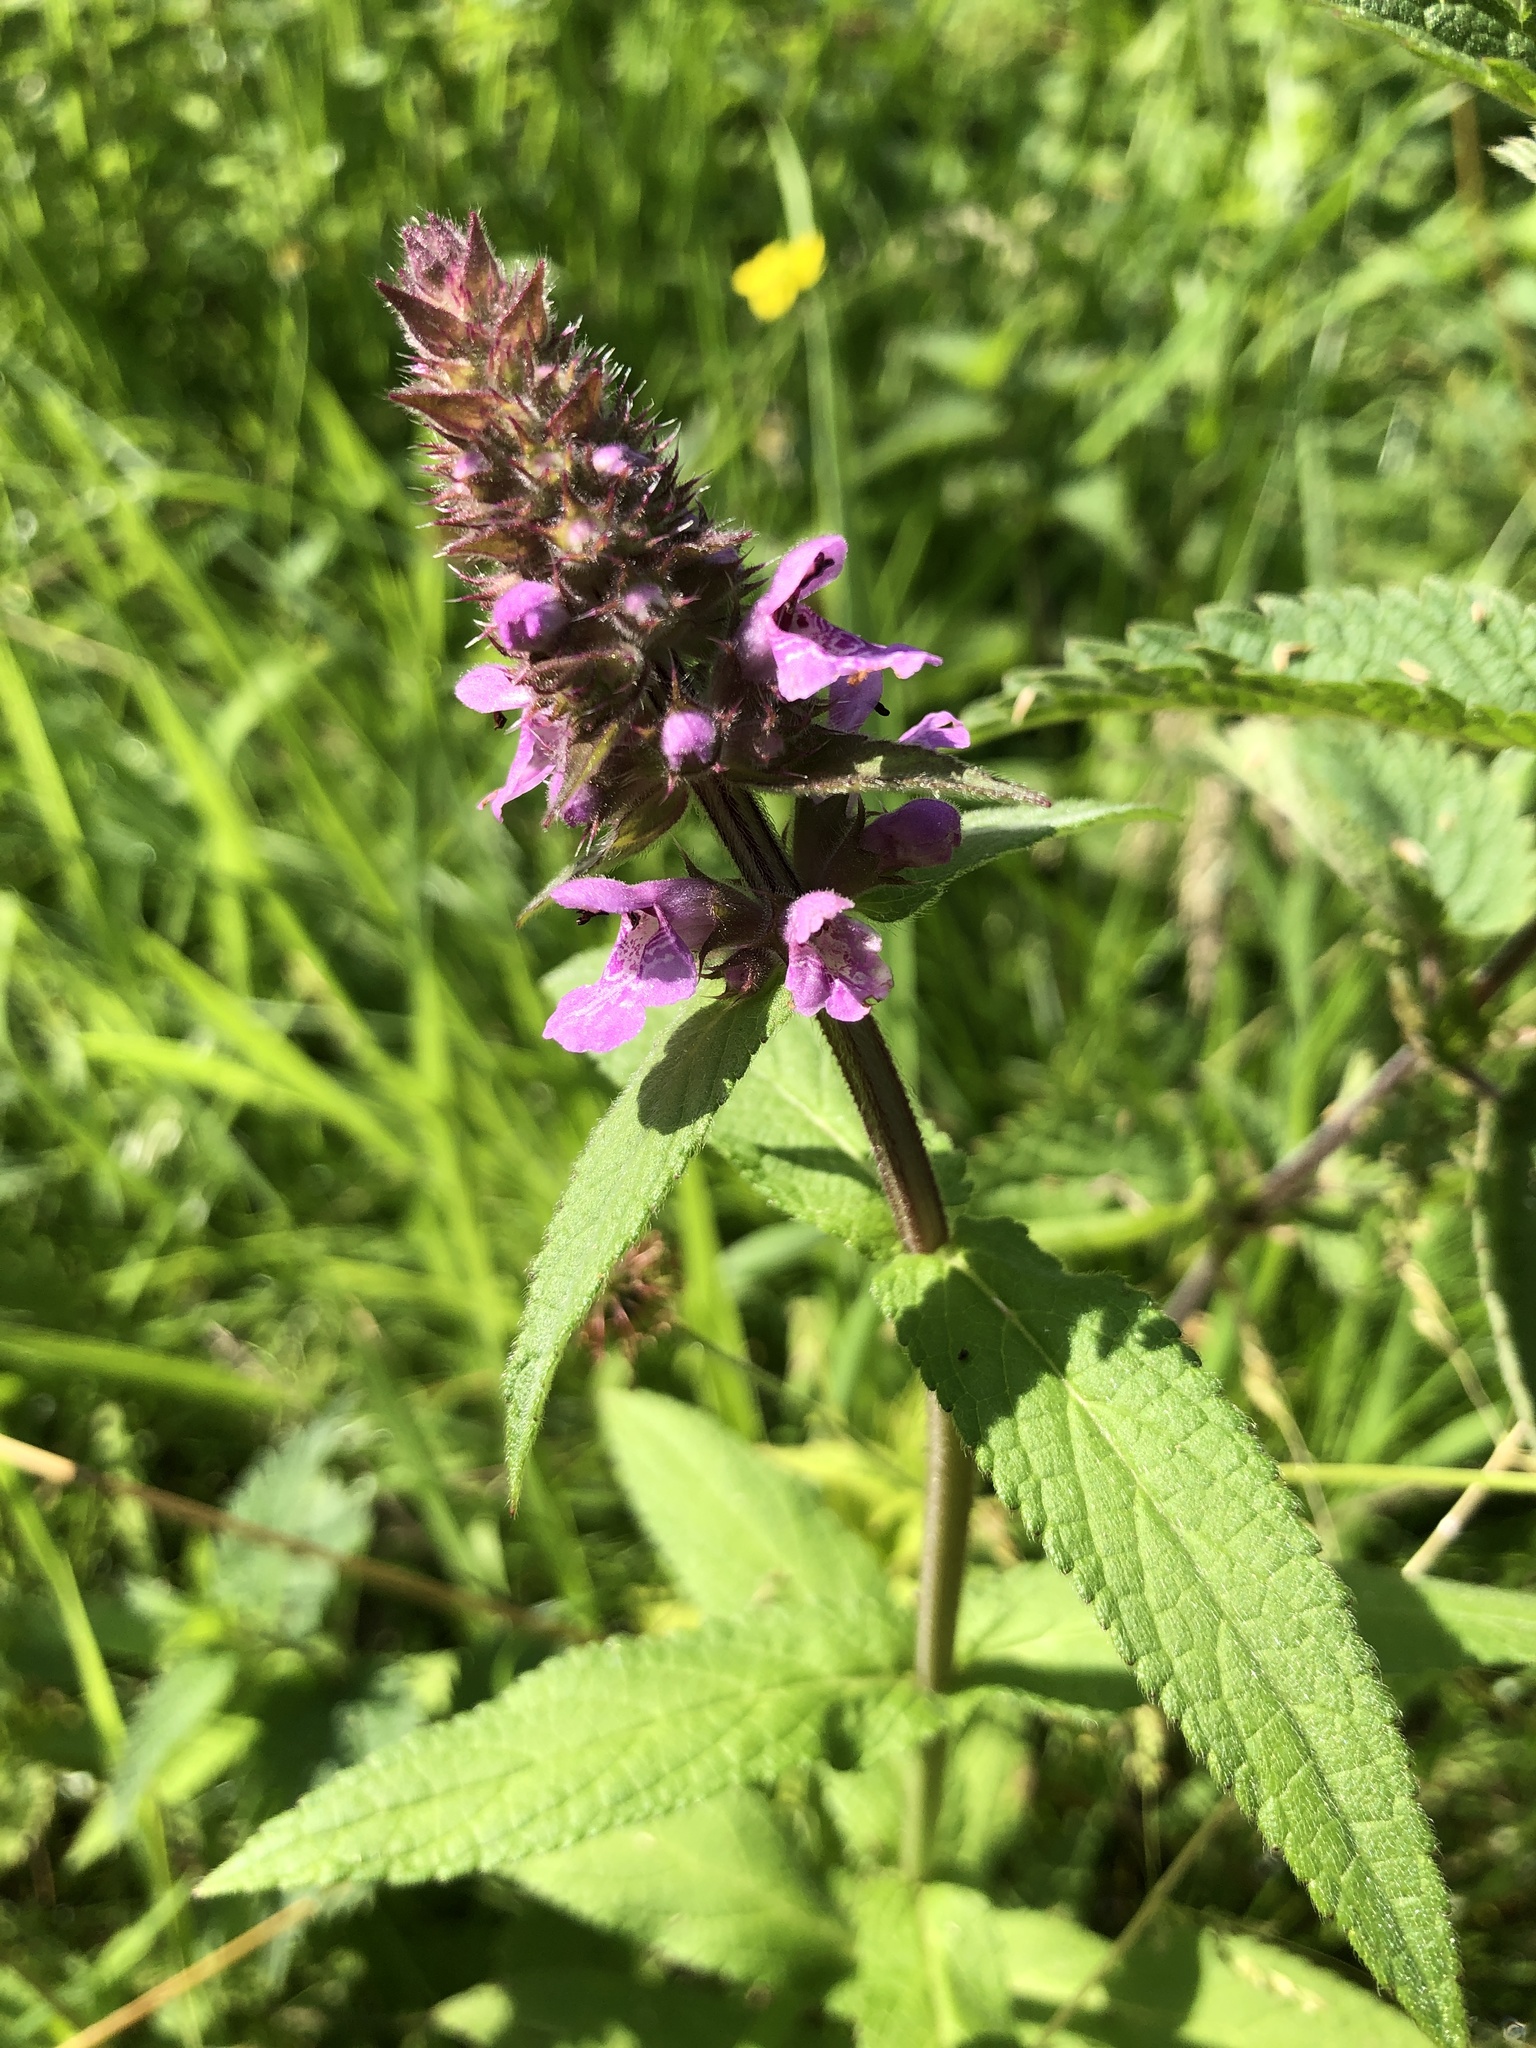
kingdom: Plantae
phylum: Tracheophyta
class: Magnoliopsida
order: Lamiales
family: Lamiaceae
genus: Stachys
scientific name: Stachys palustris
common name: Marsh woundwort
